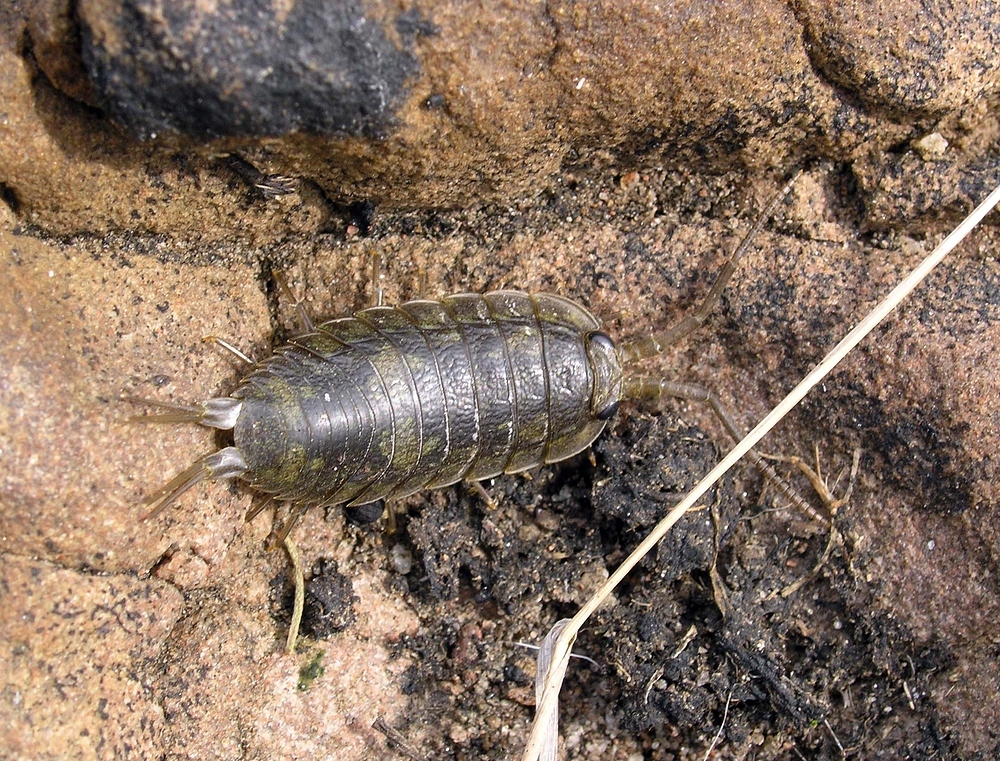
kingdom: Animalia
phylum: Arthropoda
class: Malacostraca
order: Isopoda
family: Ligiidae
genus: Ligia
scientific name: Ligia oceanica
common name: Sea slater
